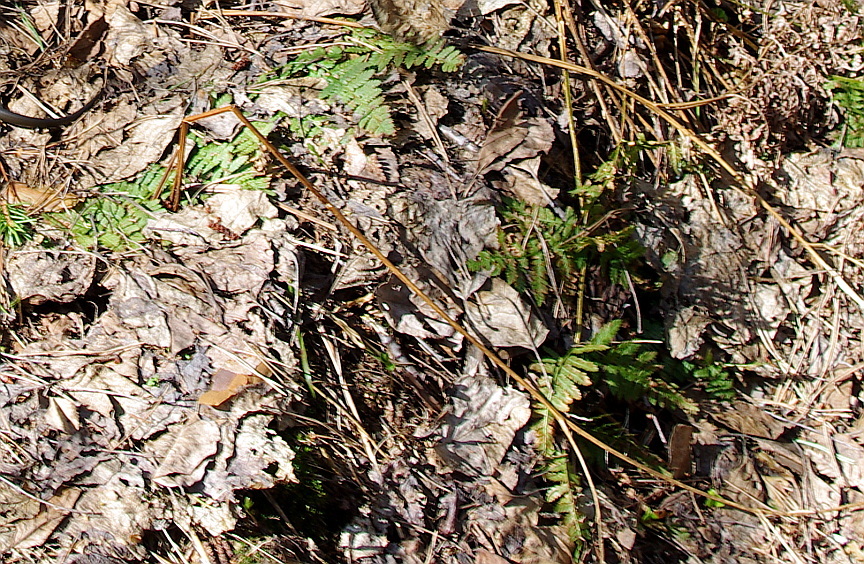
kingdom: Plantae
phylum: Tracheophyta
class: Polypodiopsida
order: Polypodiales
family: Dryopteridaceae
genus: Dryopteris
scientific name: Dryopteris carthusiana
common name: Narrow buckler-fern
